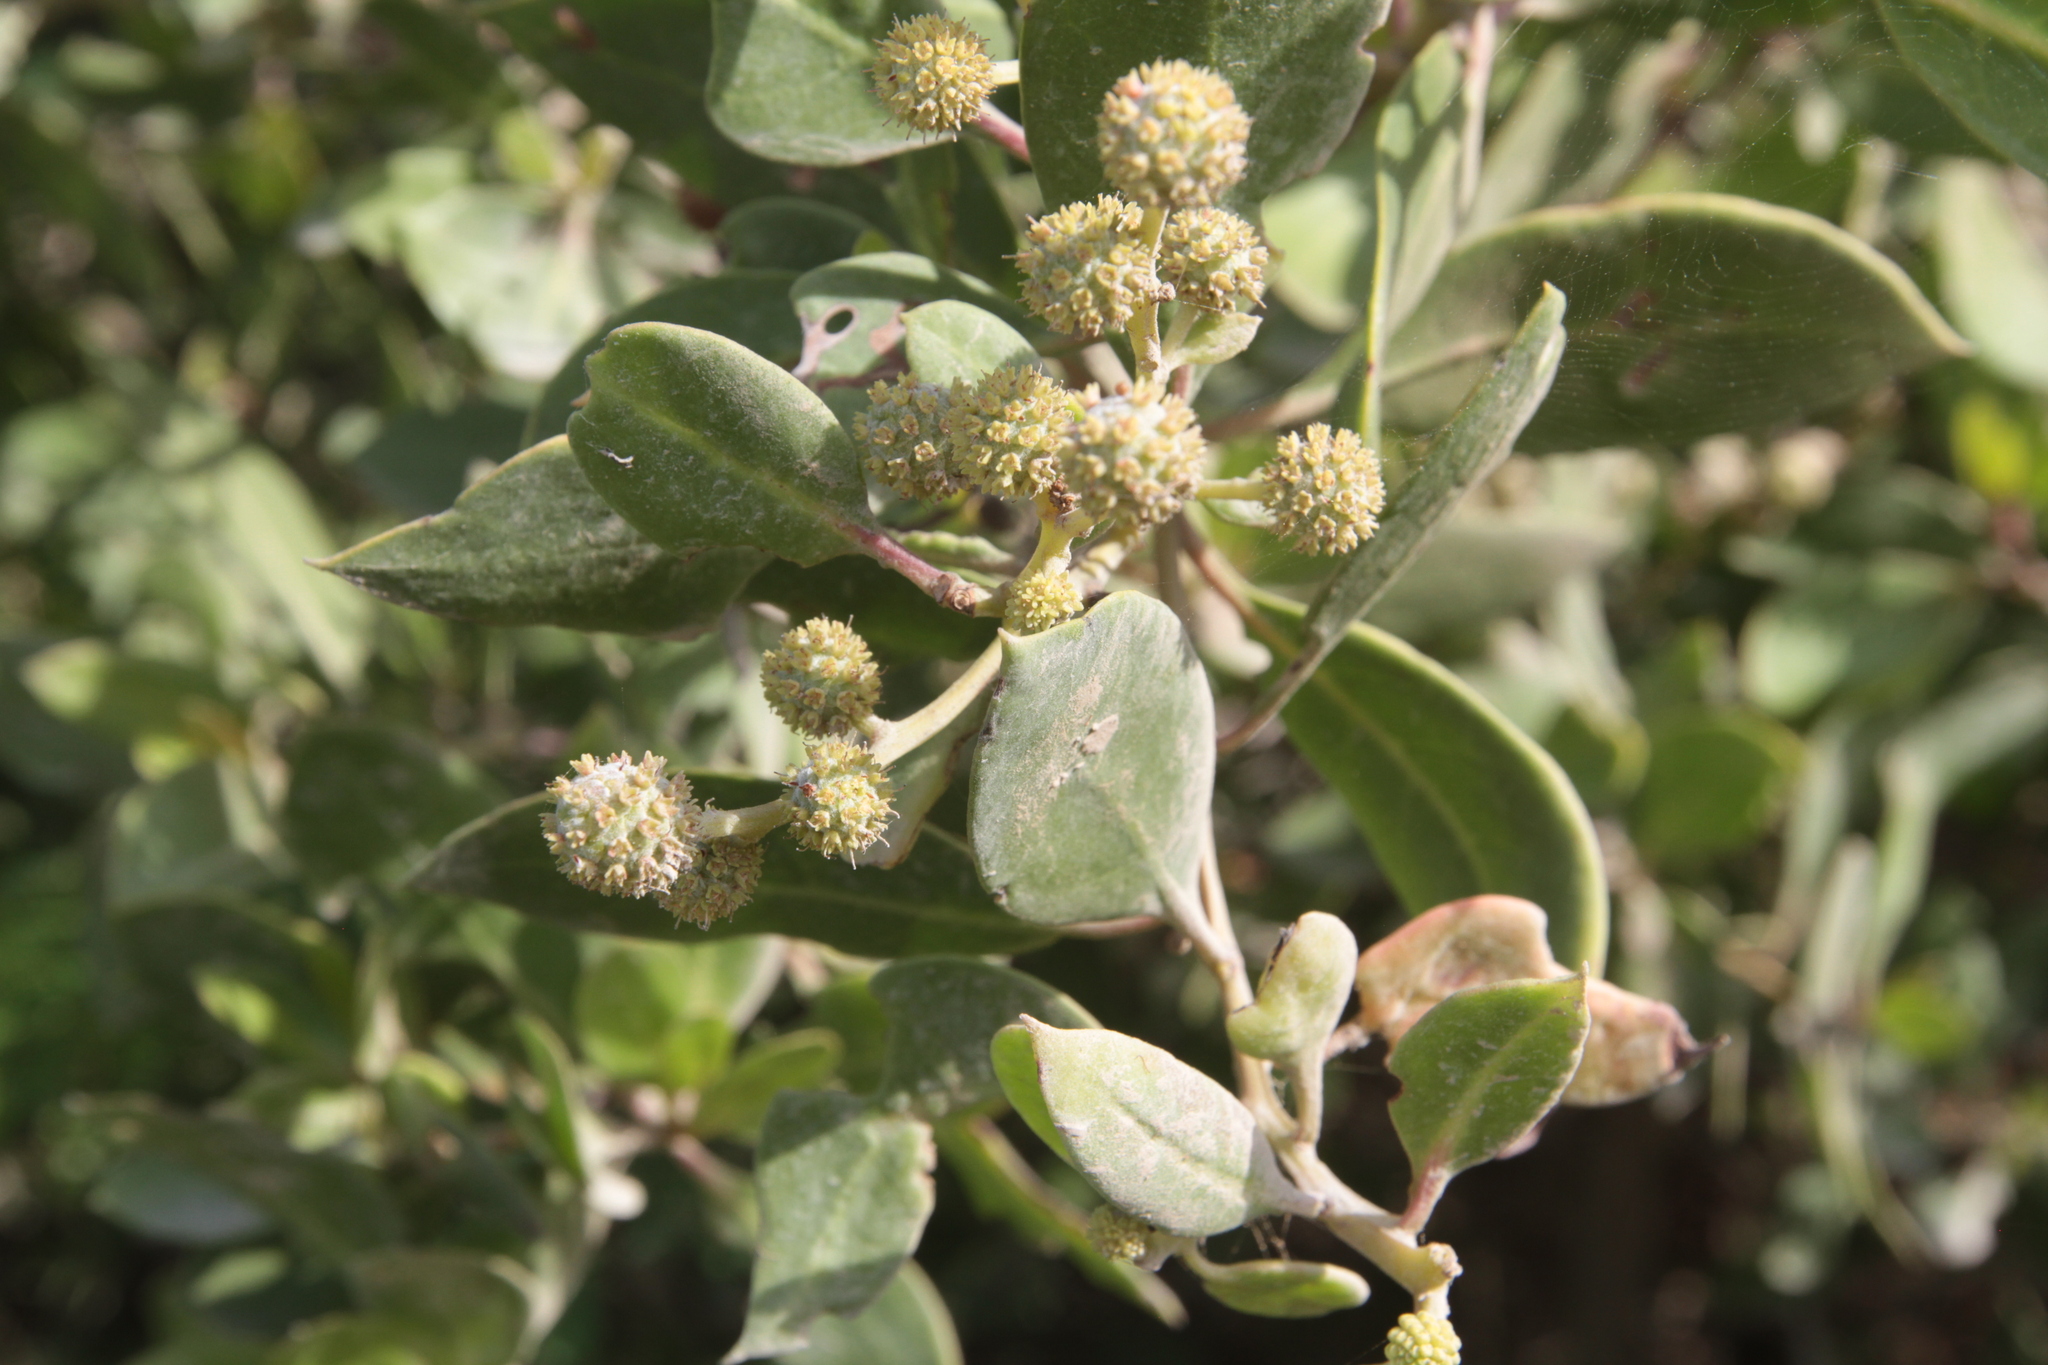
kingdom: Plantae
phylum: Tracheophyta
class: Magnoliopsida
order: Myrtales
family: Combretaceae
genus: Conocarpus
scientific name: Conocarpus erectus
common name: Button mangrove
